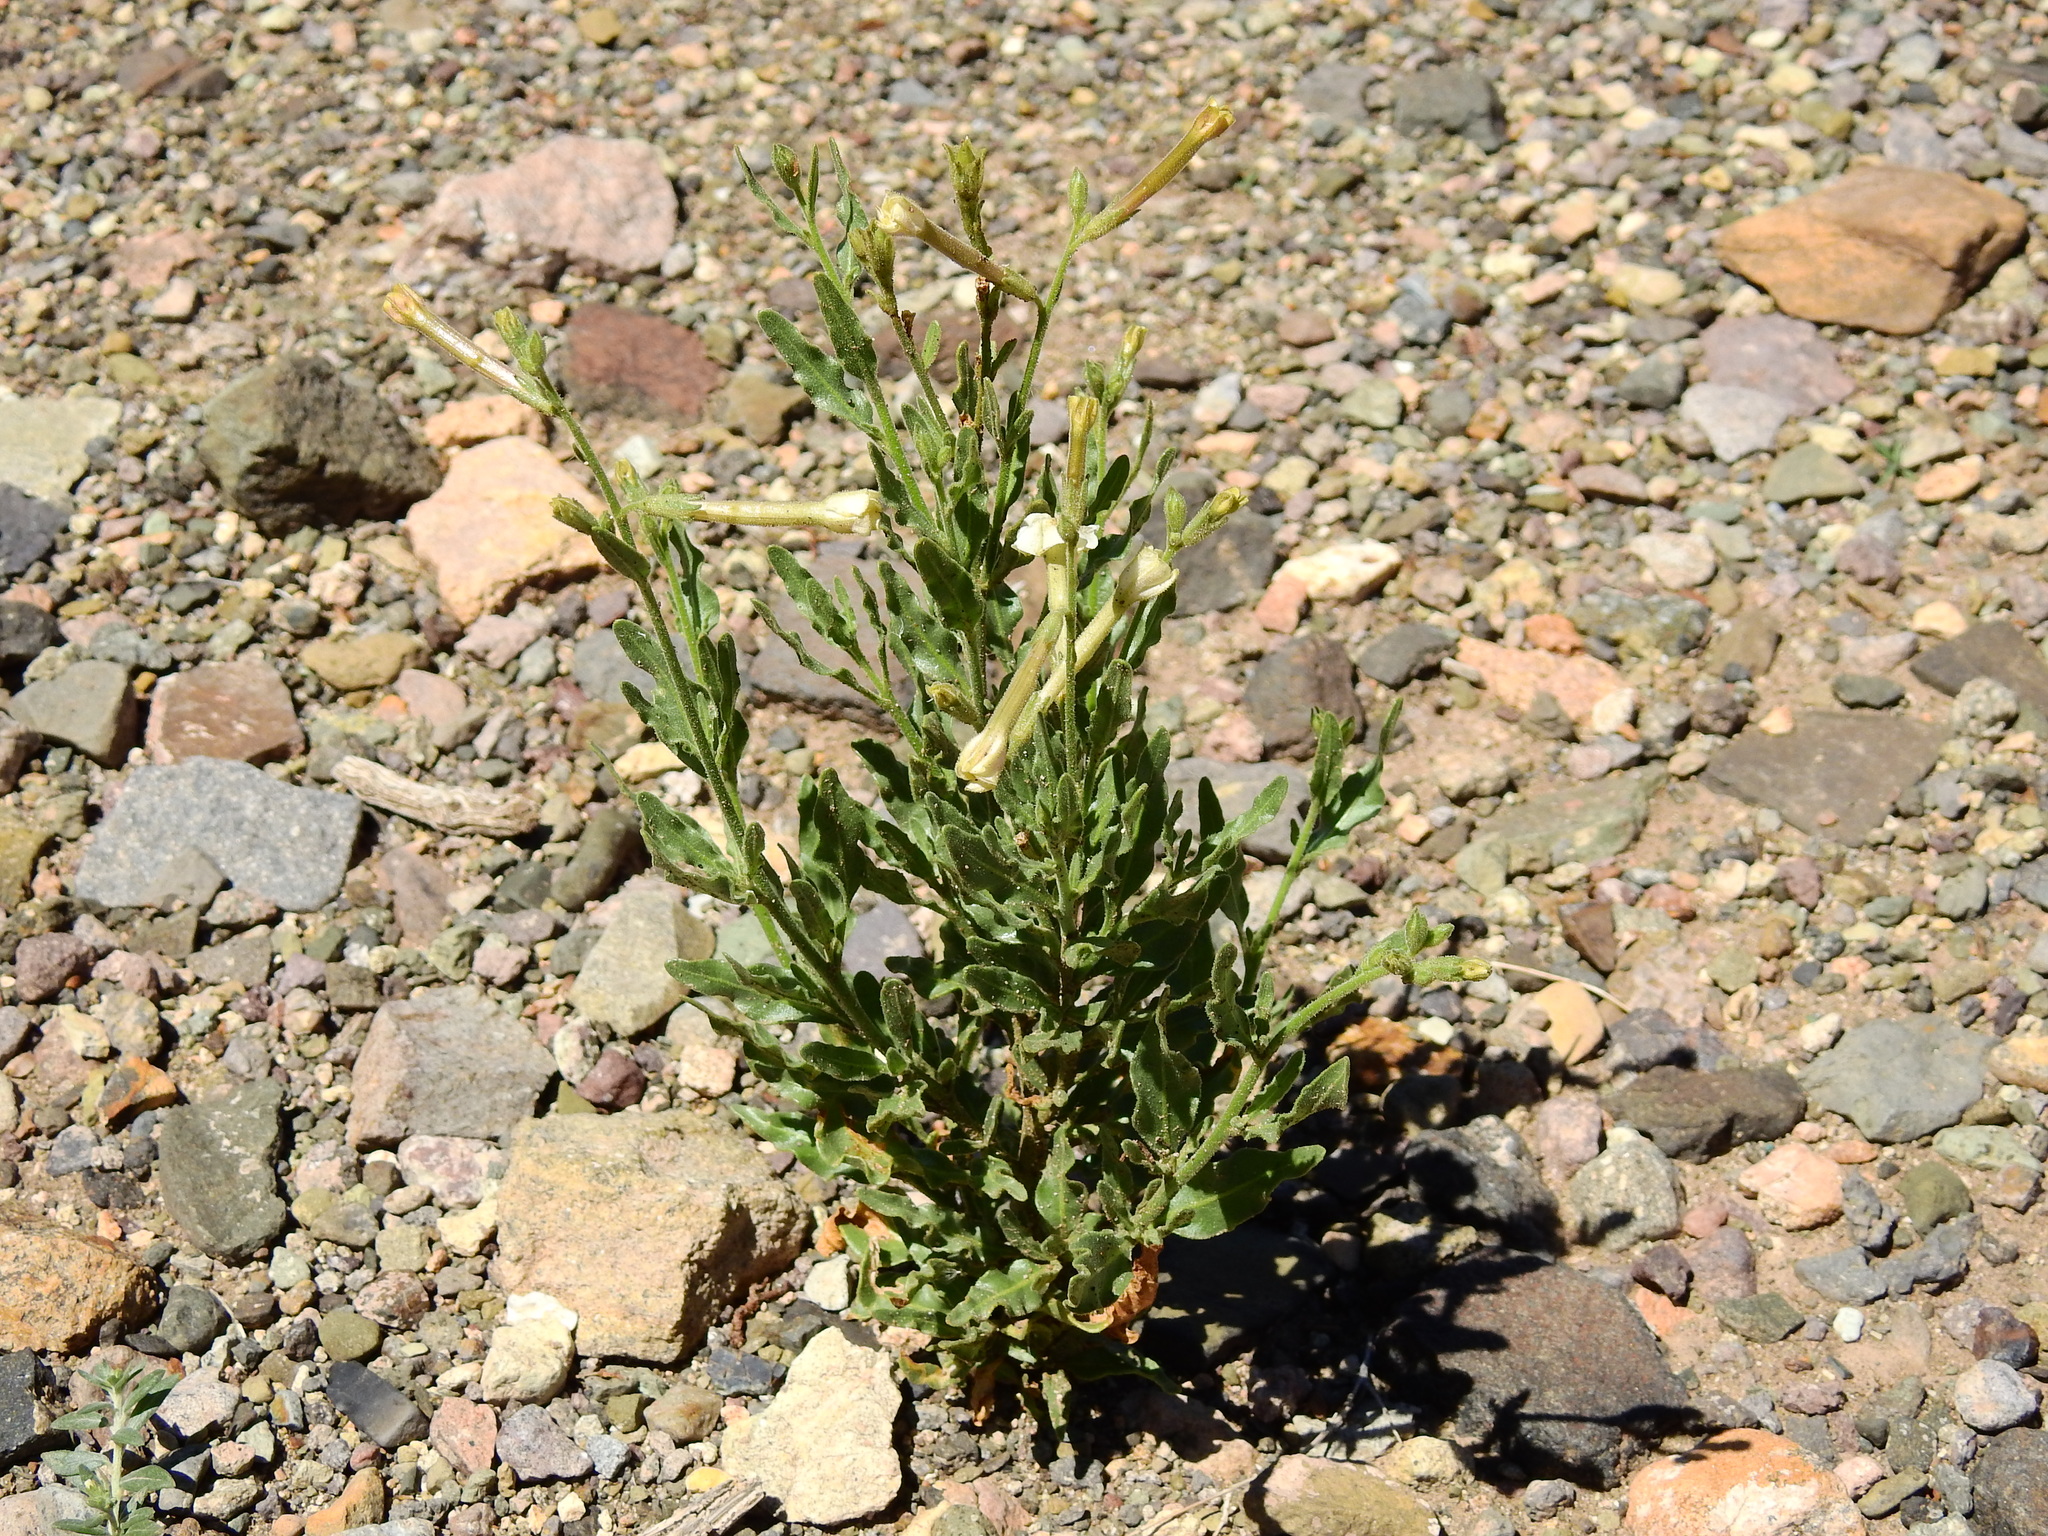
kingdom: Plantae
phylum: Tracheophyta
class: Magnoliopsida
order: Solanales
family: Solanaceae
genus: Nicotiana
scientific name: Nicotiana noctiflora
